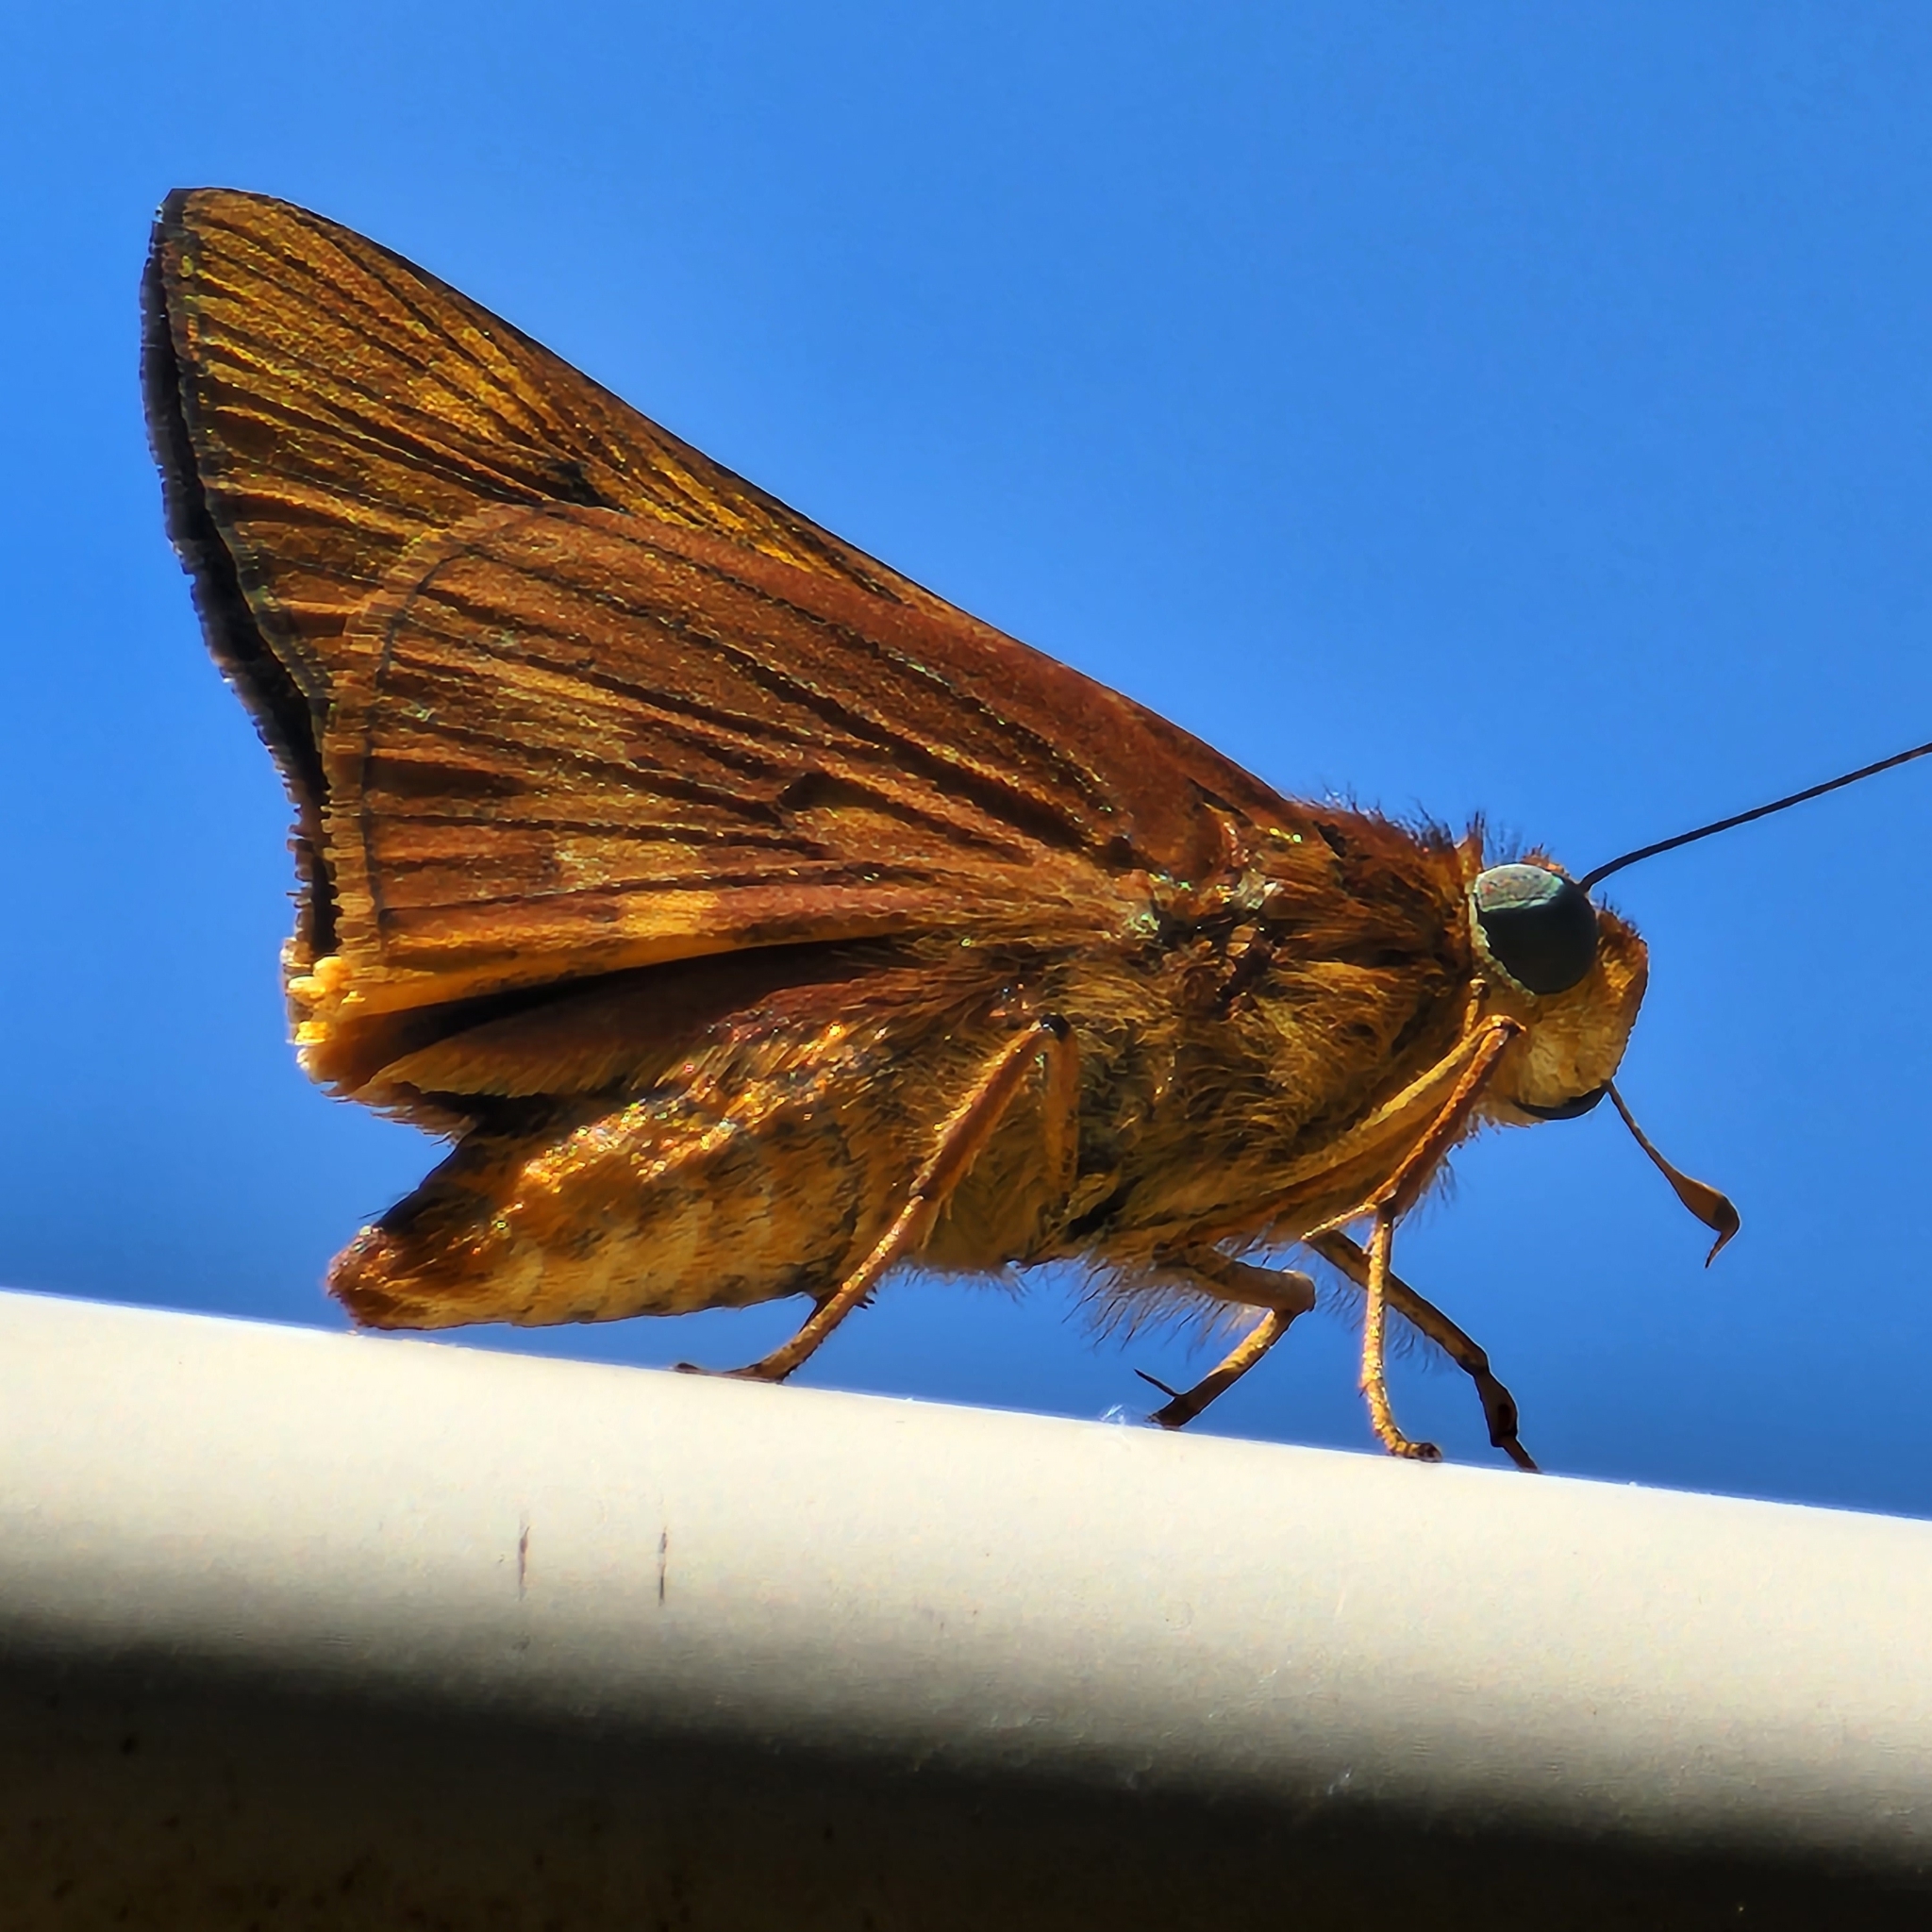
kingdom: Animalia
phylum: Arthropoda
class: Insecta
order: Lepidoptera
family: Hesperiidae
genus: Cephrenes
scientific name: Cephrenes augiades
